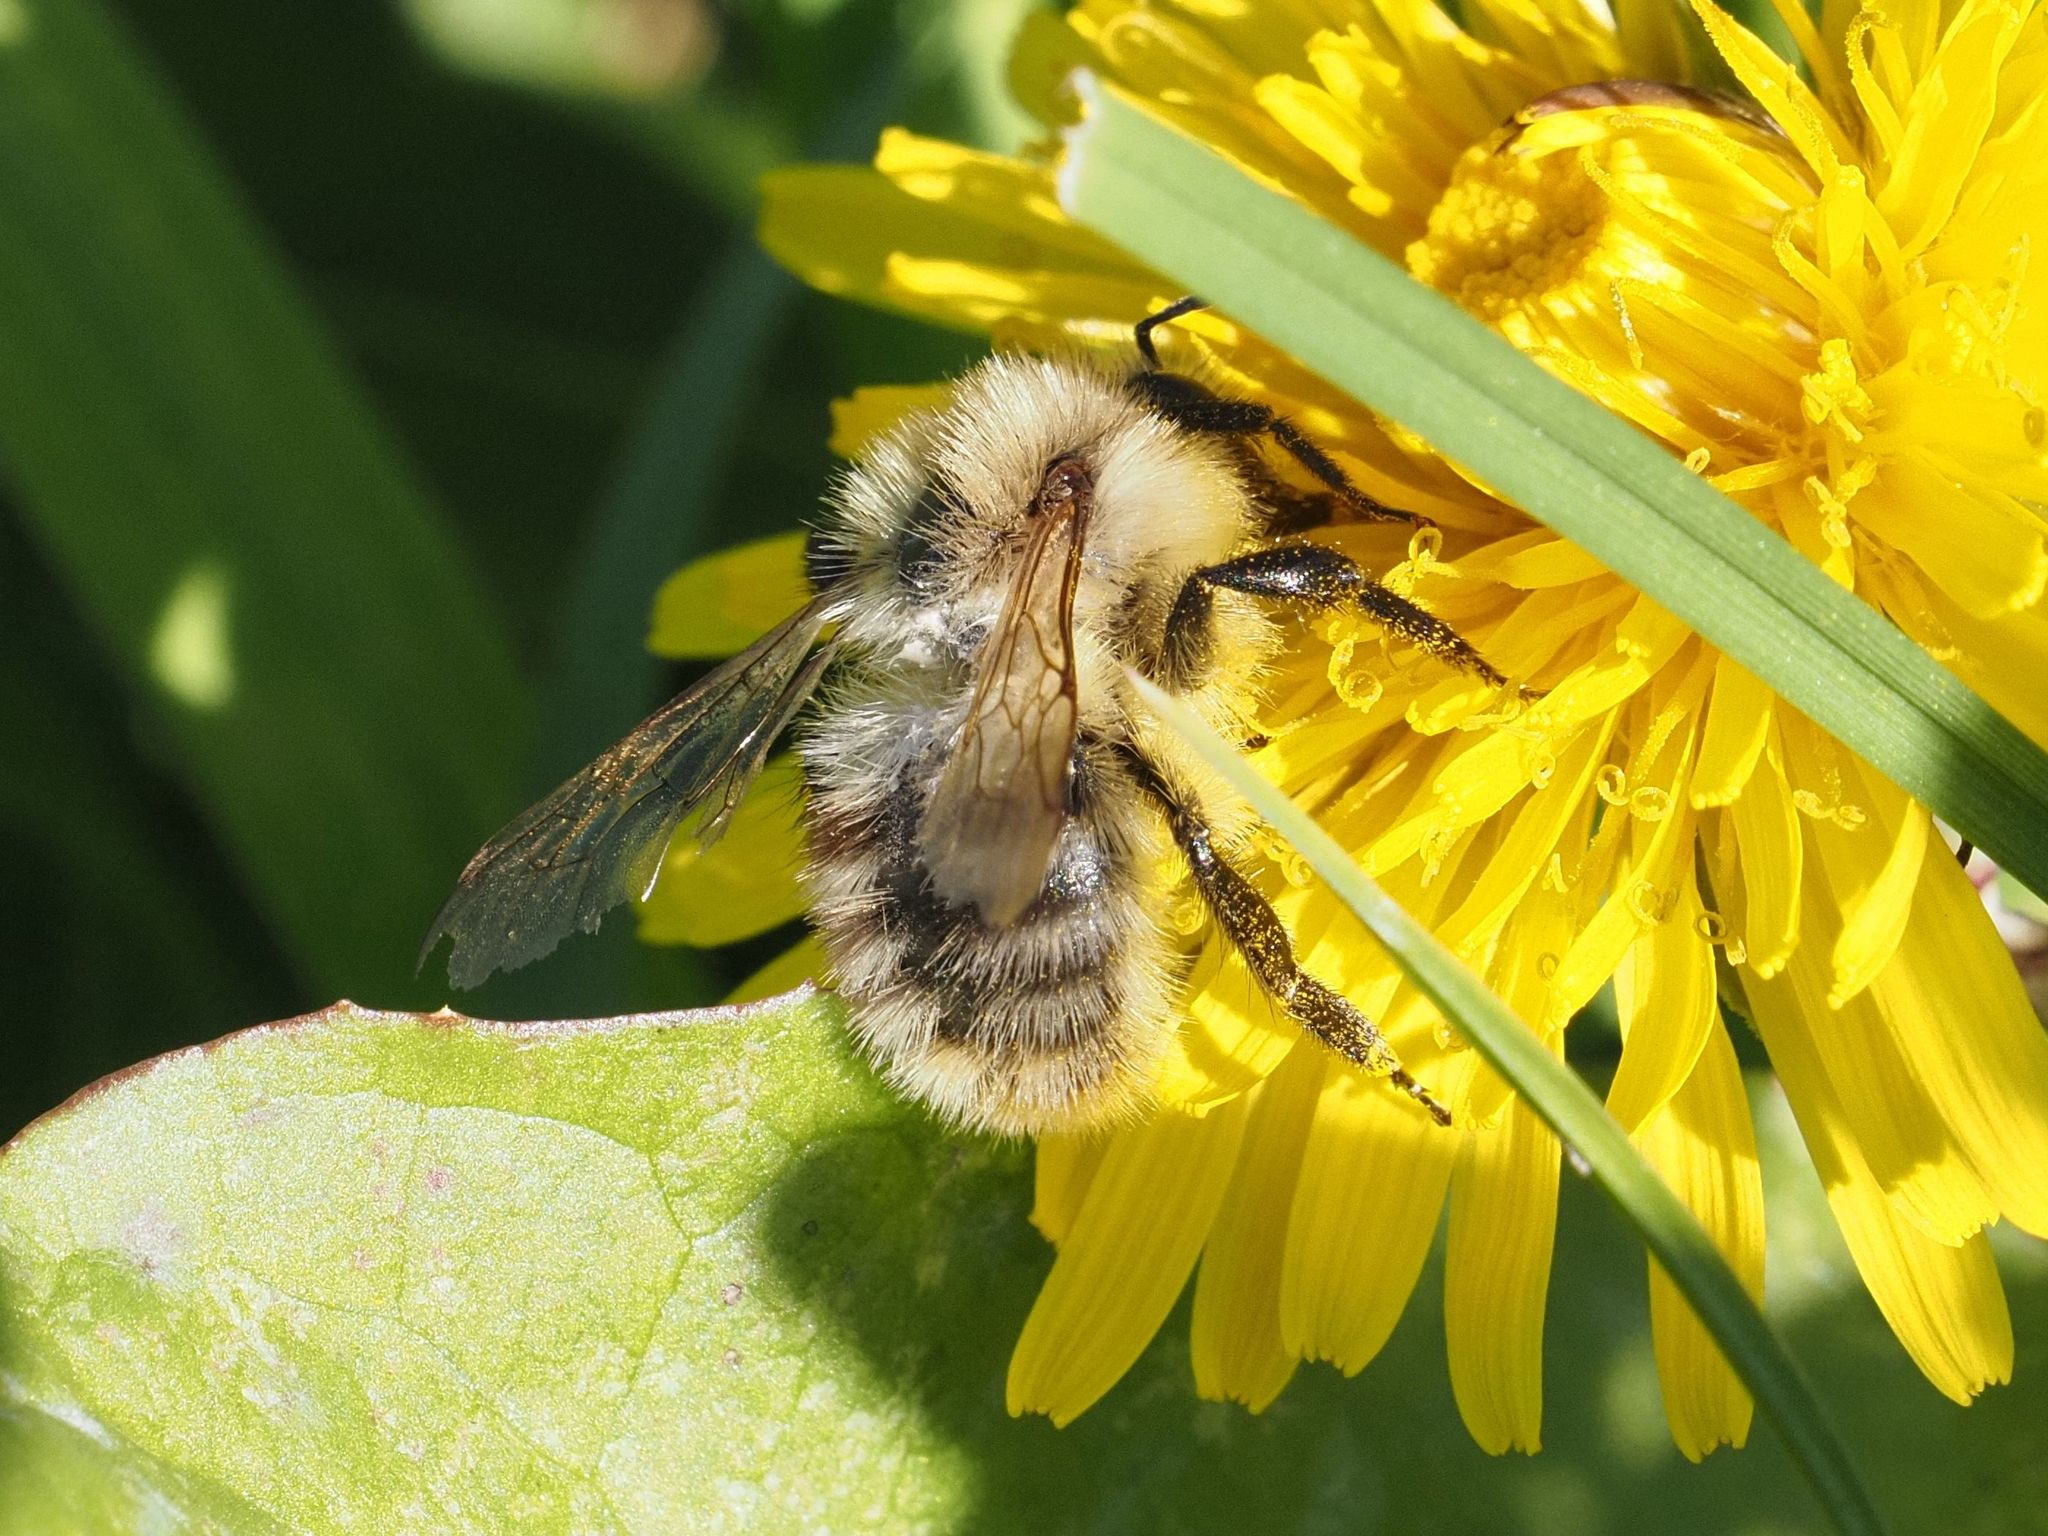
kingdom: Animalia
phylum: Arthropoda
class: Insecta
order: Hymenoptera
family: Apidae
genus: Bombus
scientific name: Bombus pascuorum
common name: Common carder bee
